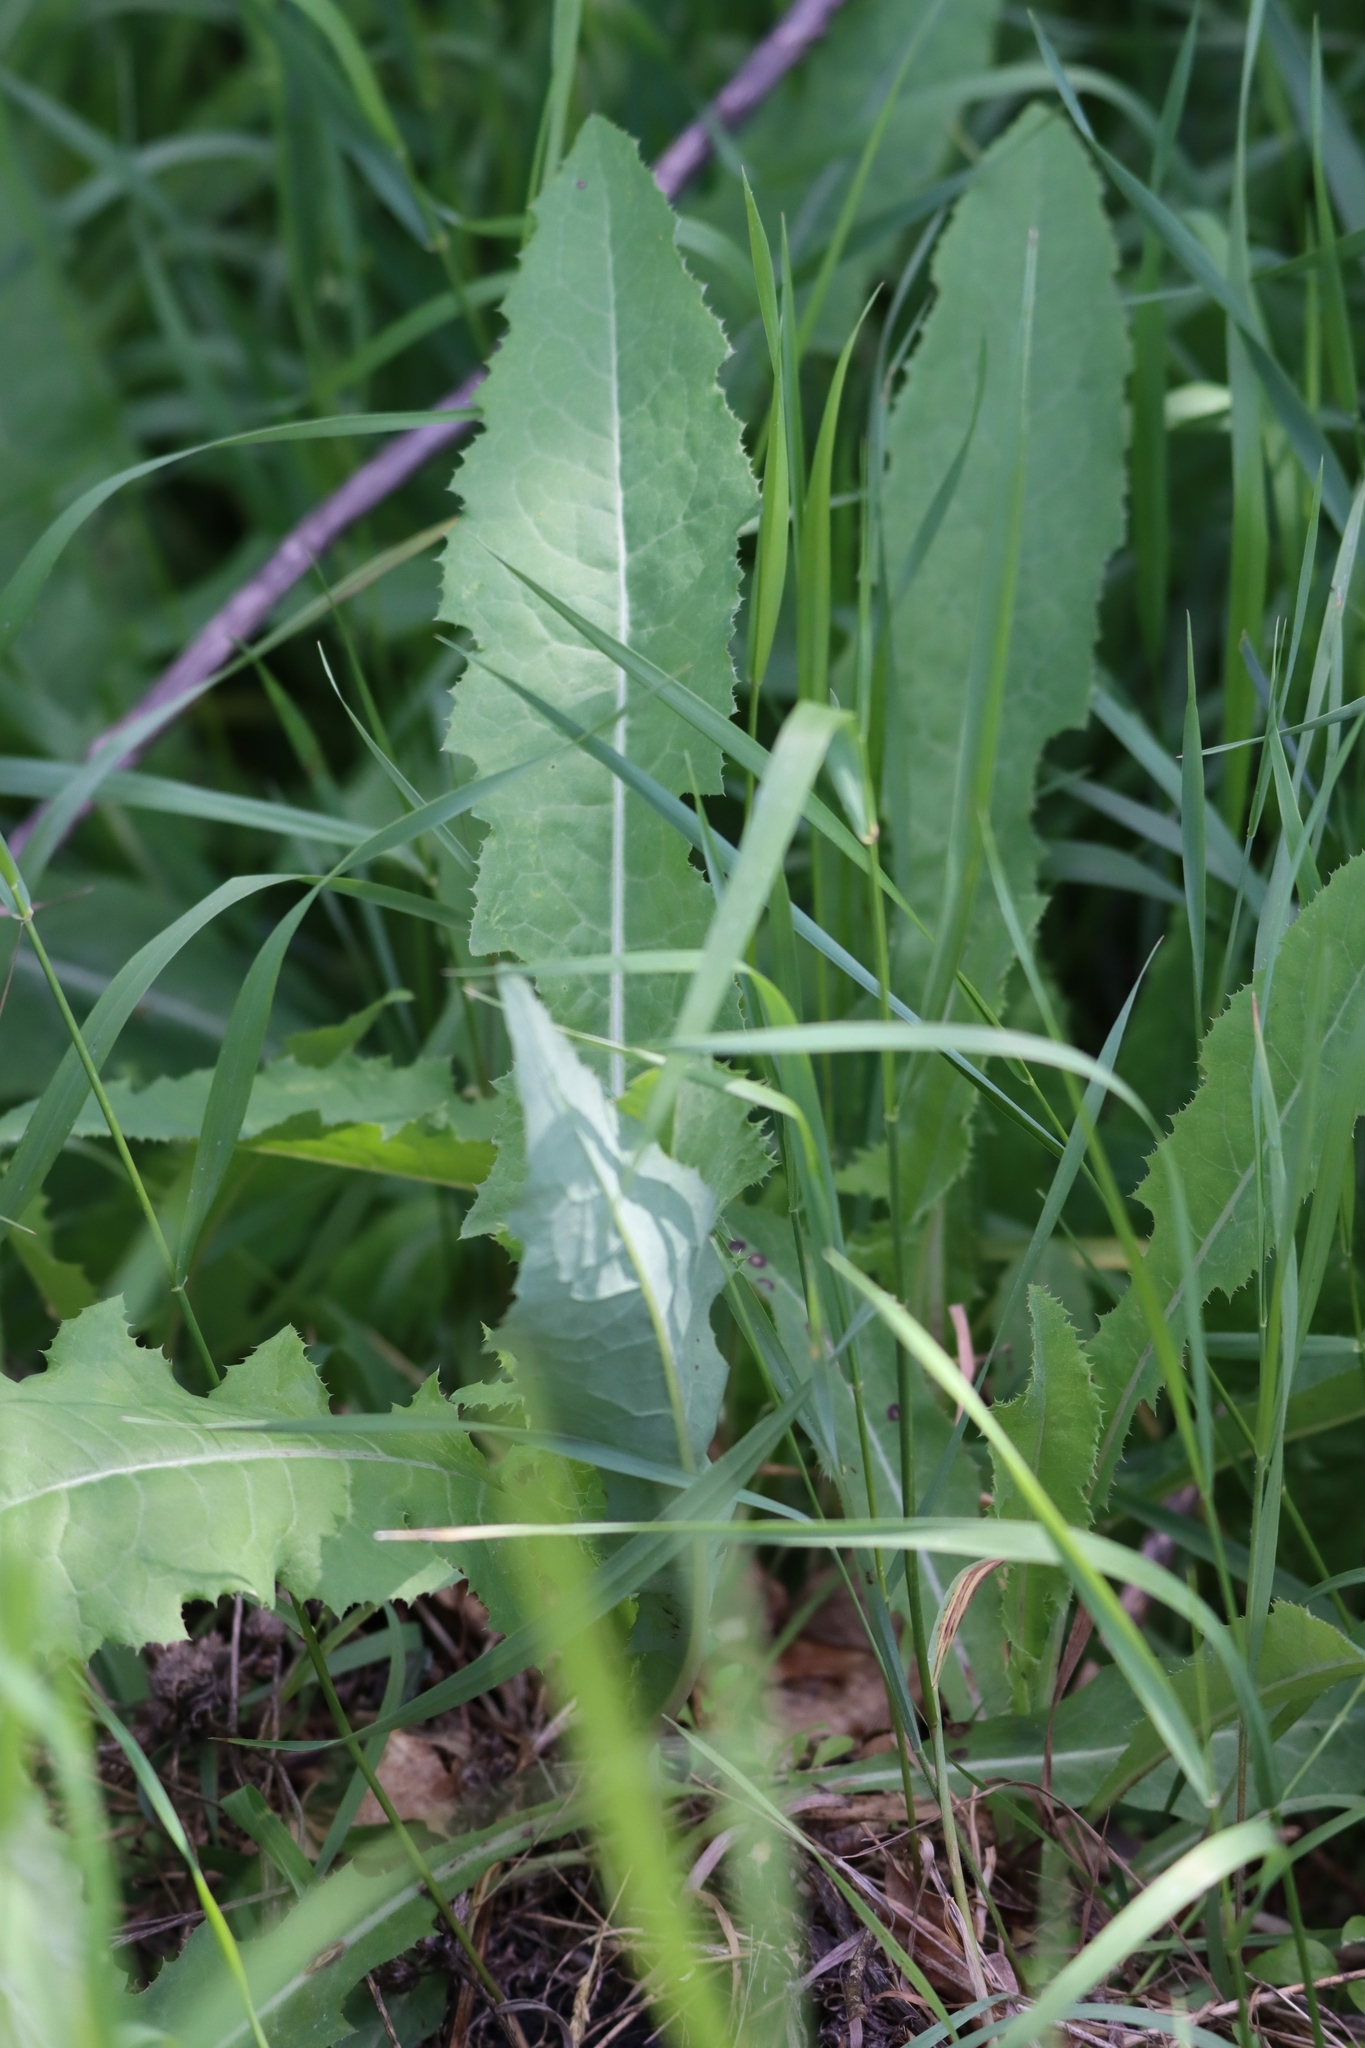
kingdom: Plantae
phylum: Tracheophyta
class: Magnoliopsida
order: Asterales
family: Asteraceae
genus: Sonchus
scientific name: Sonchus arvensis
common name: Perennial sow-thistle
